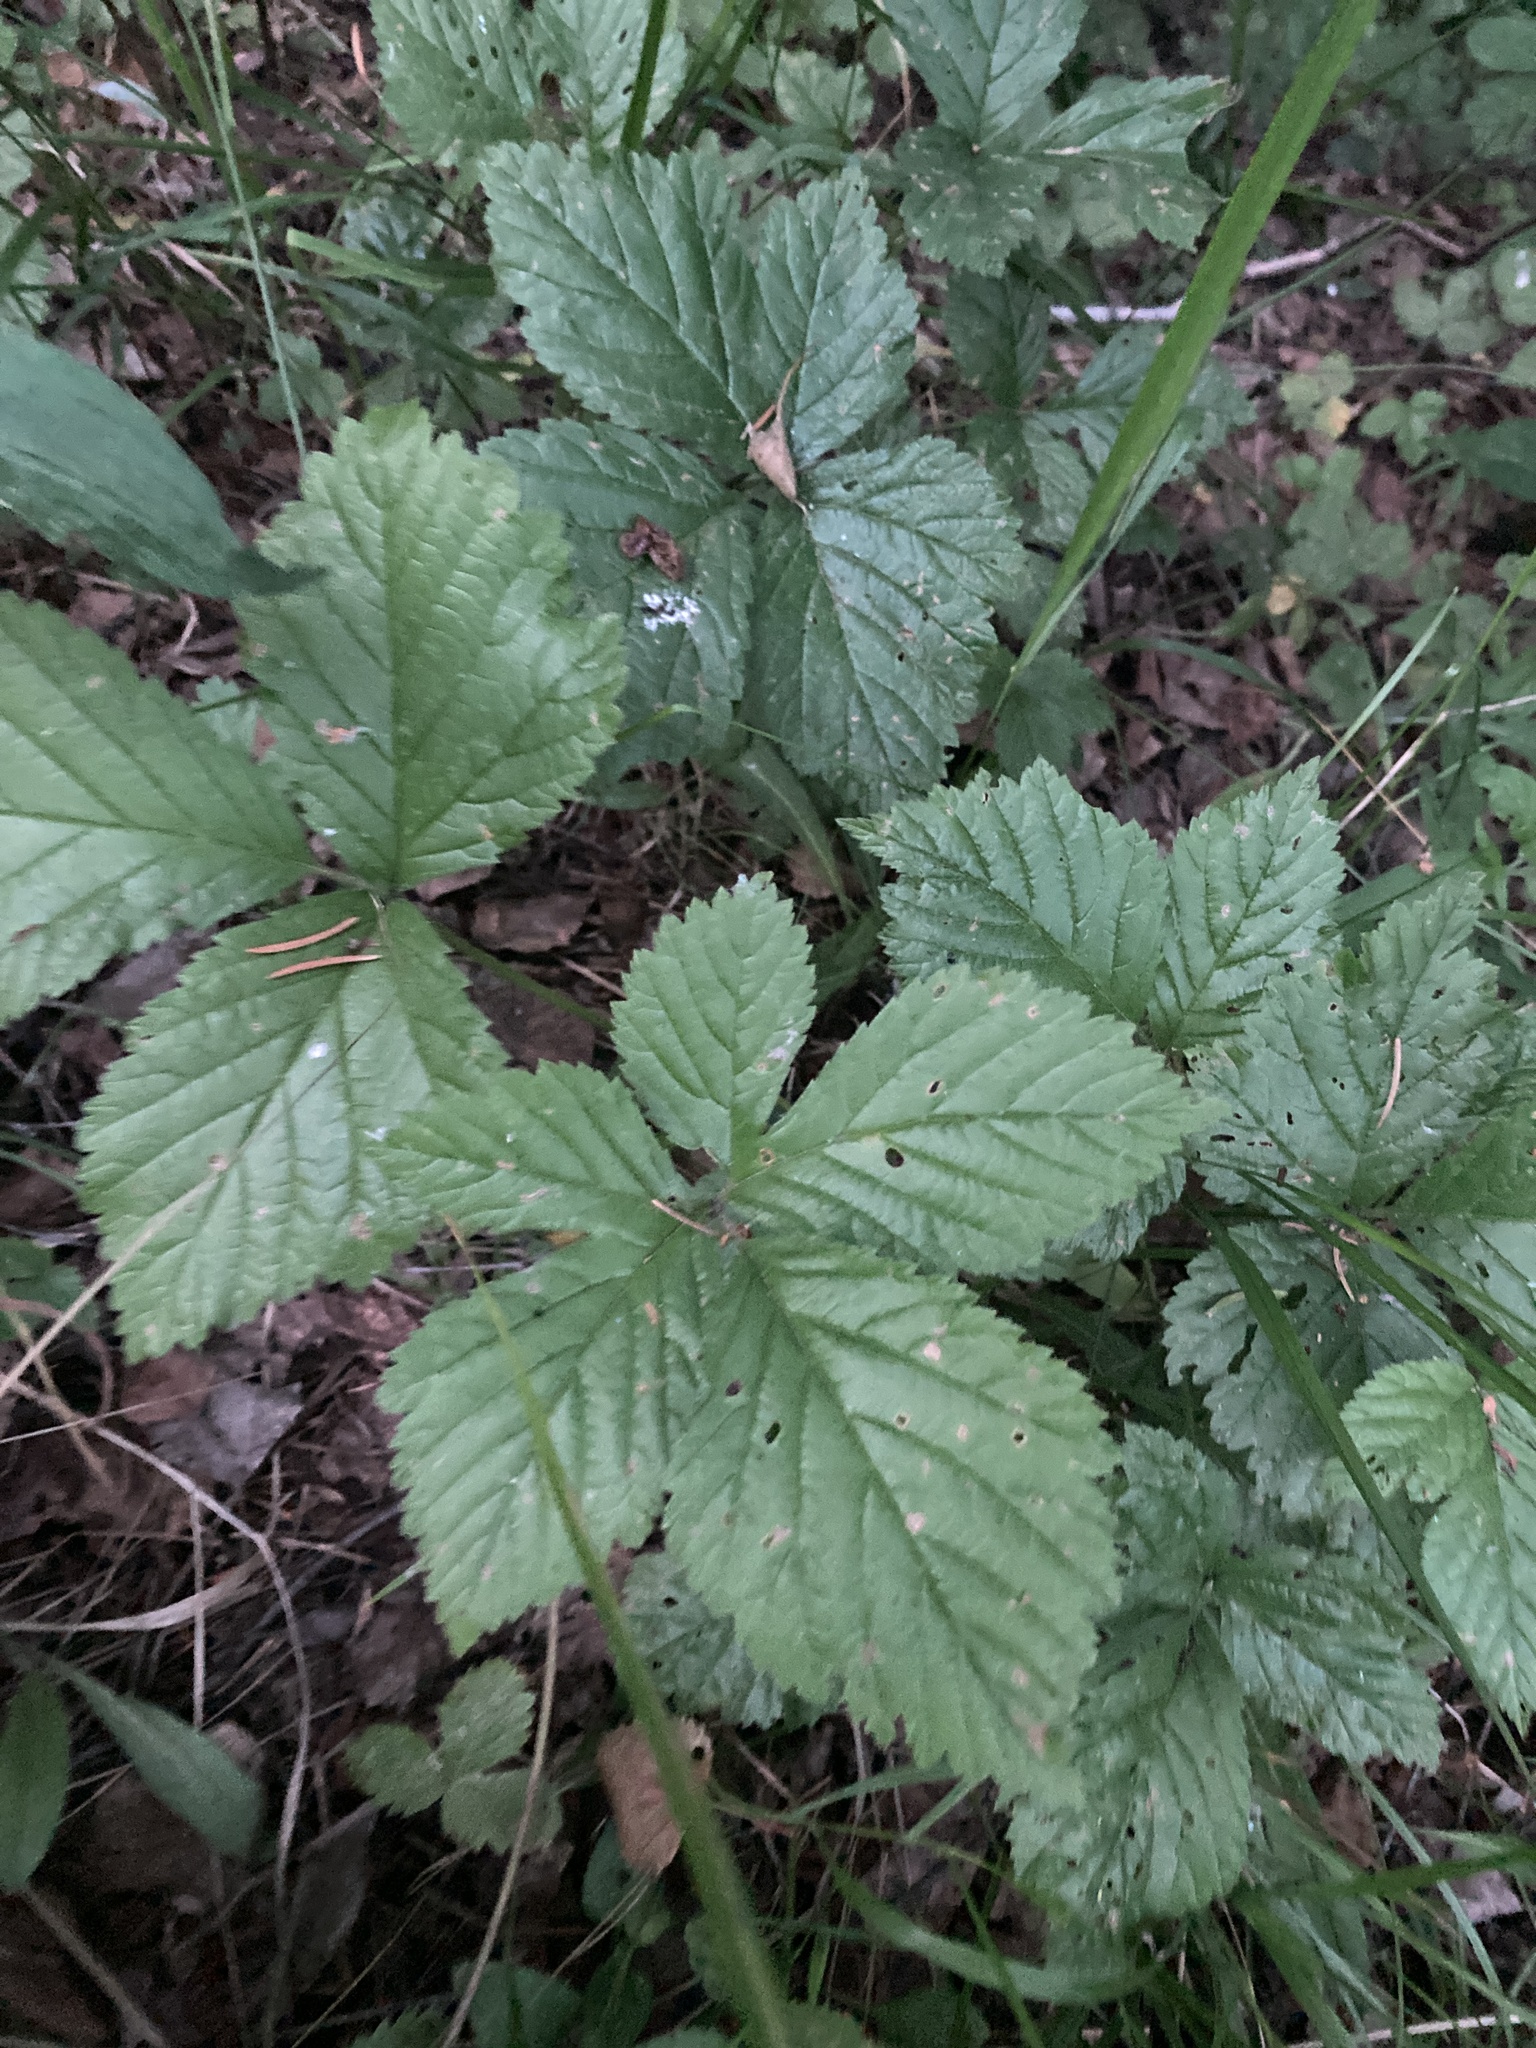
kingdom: Plantae
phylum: Tracheophyta
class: Magnoliopsida
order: Rosales
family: Rosaceae
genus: Rubus
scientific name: Rubus saxatilis
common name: Stone bramble
